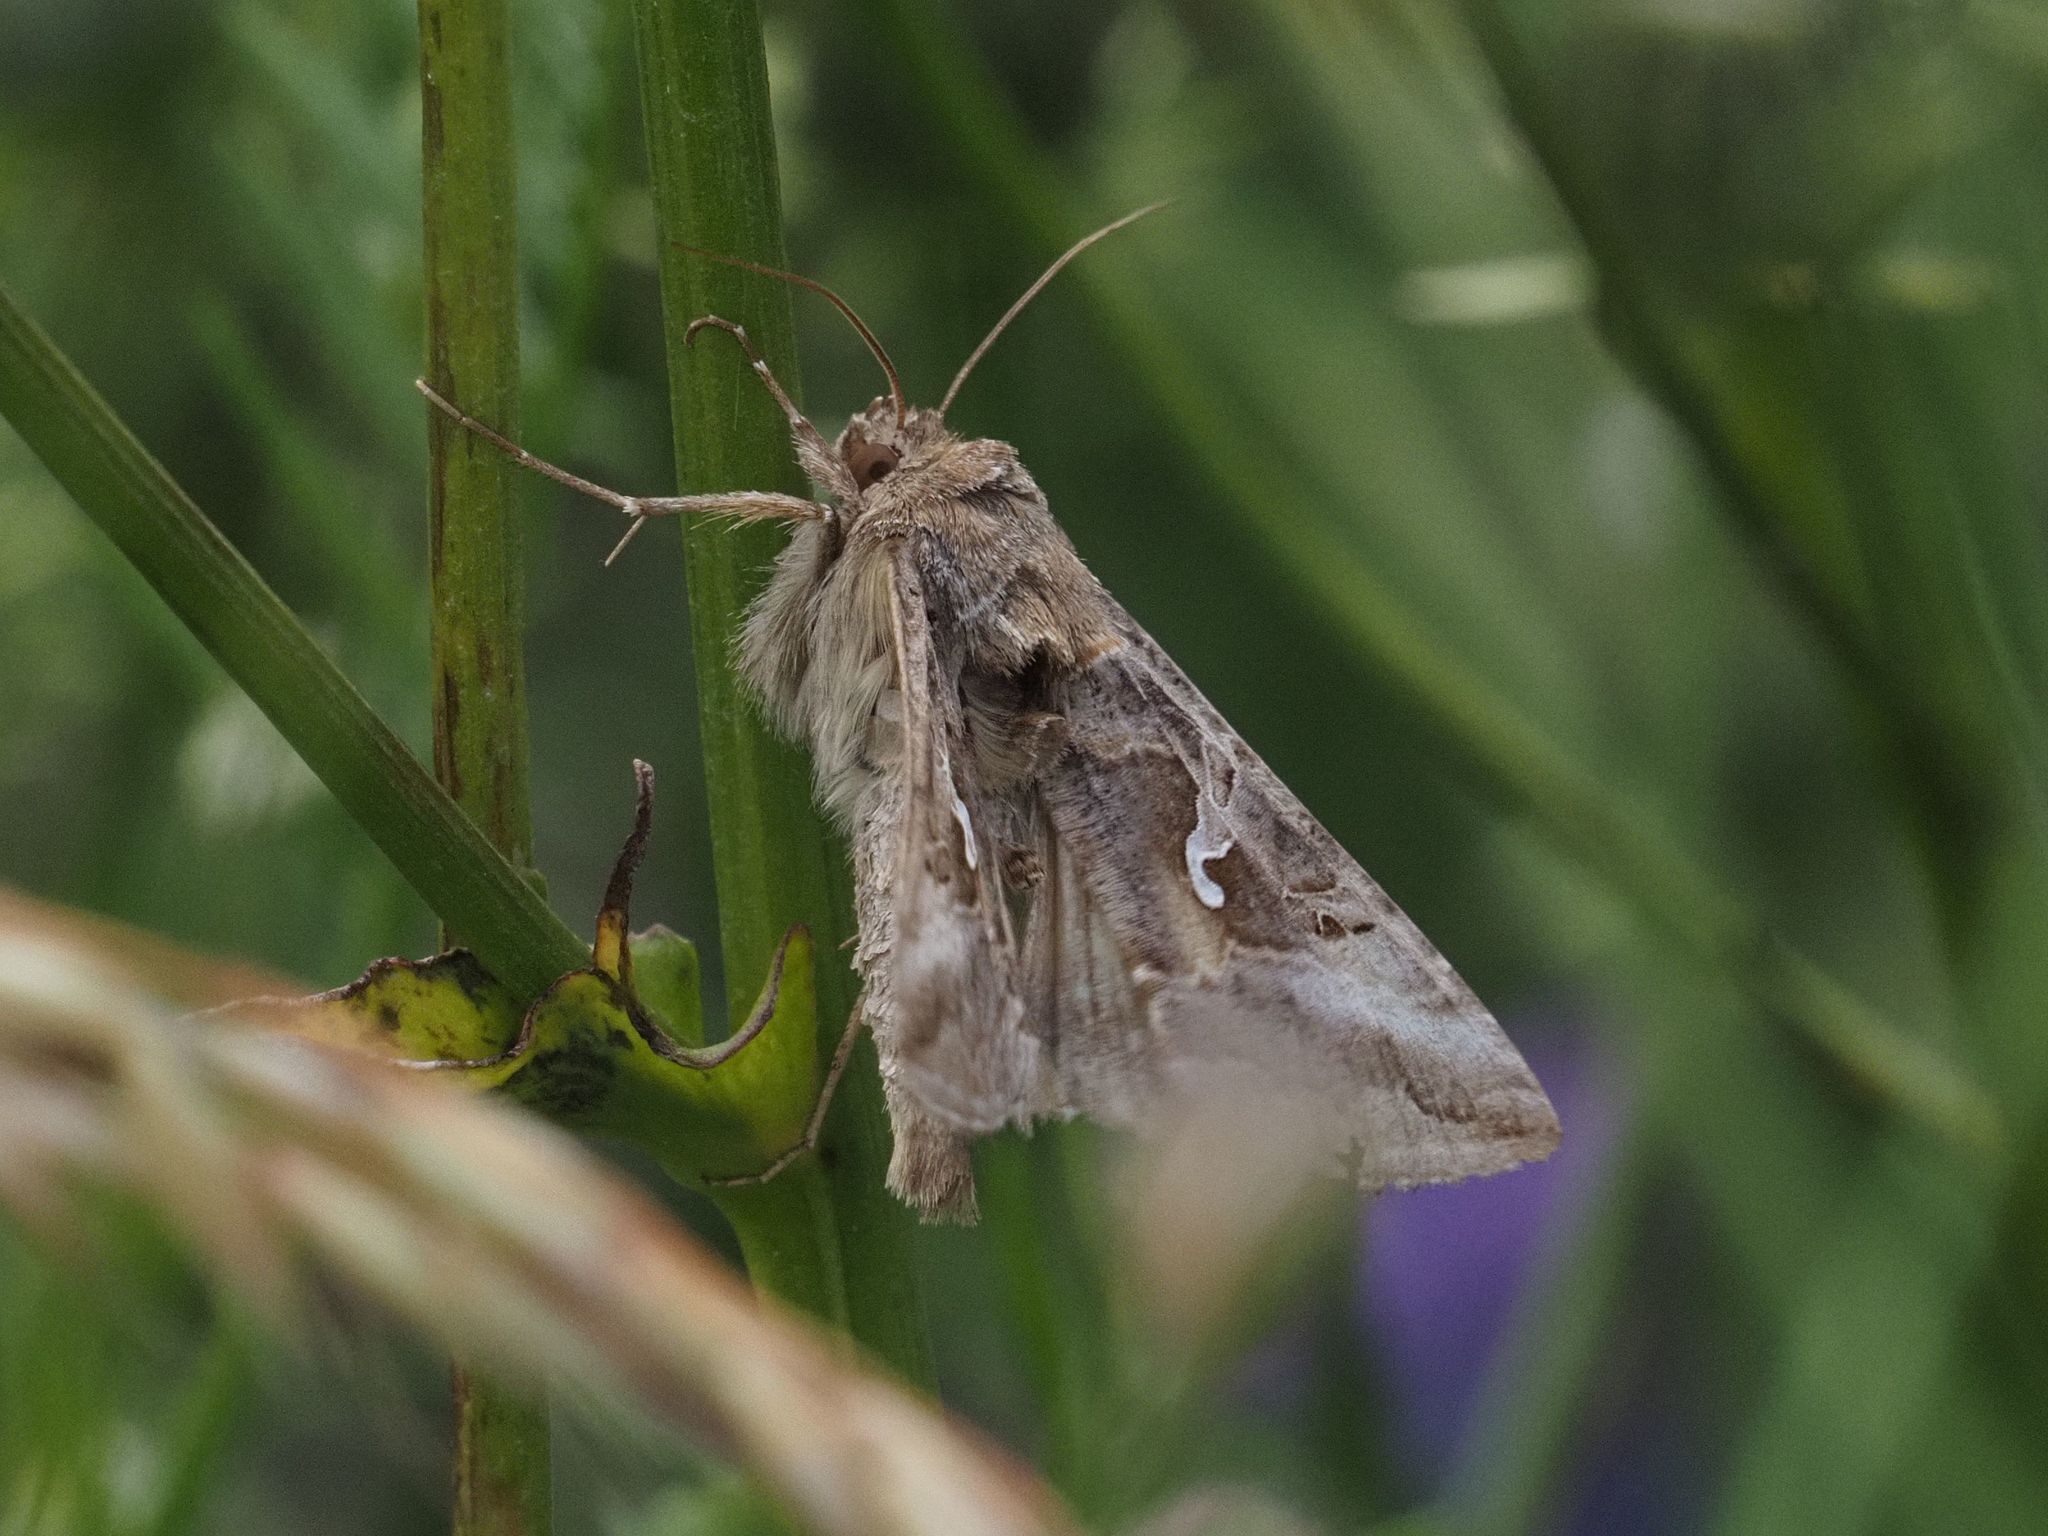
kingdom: Animalia
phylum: Arthropoda
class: Insecta
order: Lepidoptera
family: Noctuidae
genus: Autographa
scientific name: Autographa gamma
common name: Silver y
